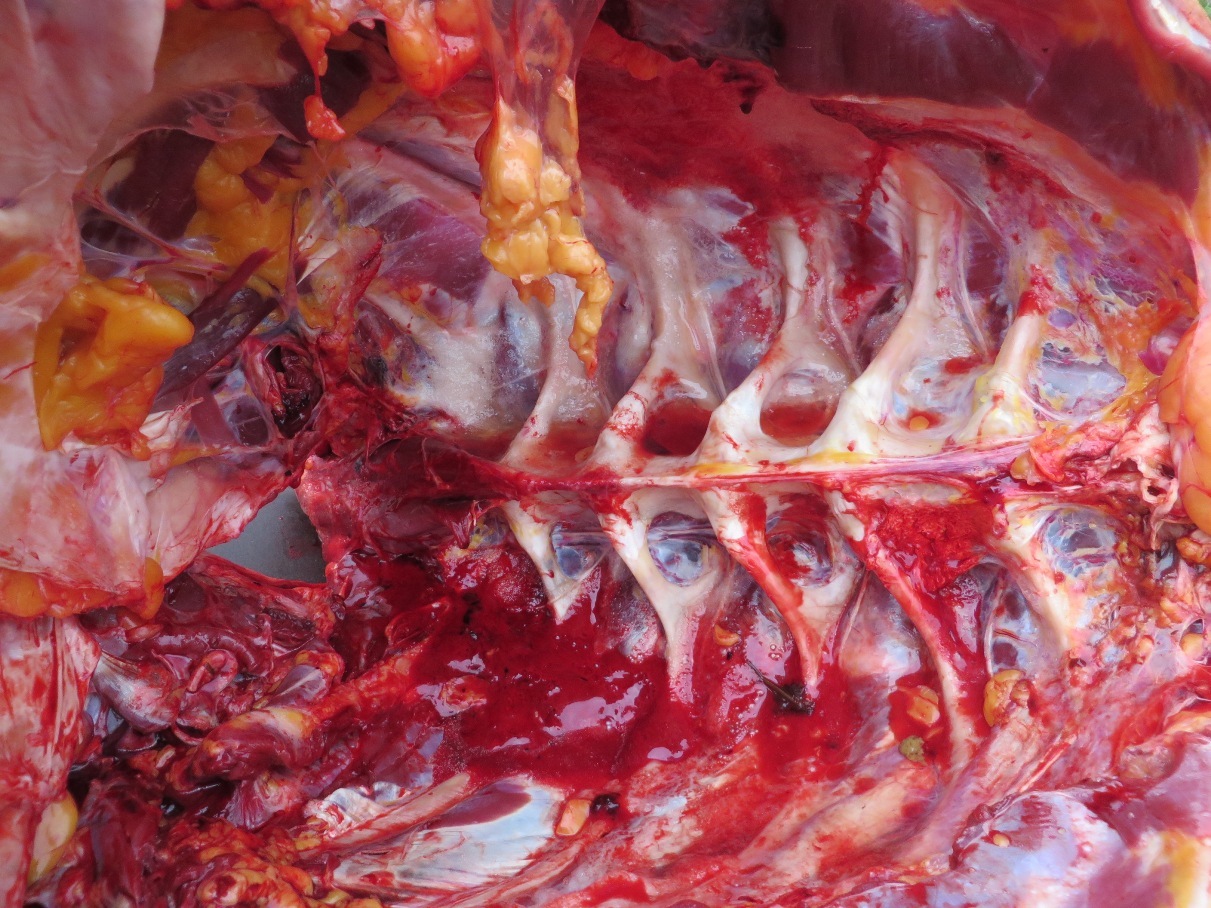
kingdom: Animalia
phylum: Chordata
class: Aves
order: Struthioniformes
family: Struthionidae
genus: Struthio
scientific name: Struthio camelus
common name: Common ostrich
